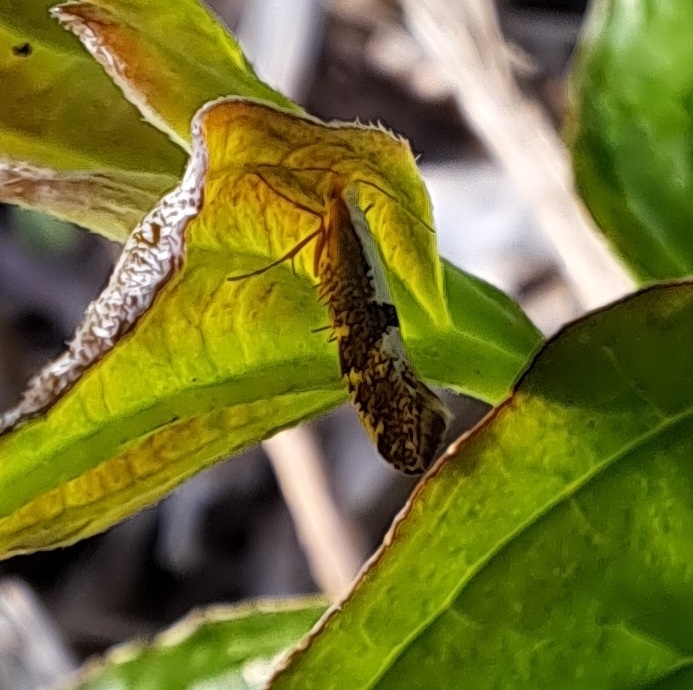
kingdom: Animalia
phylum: Arthropoda
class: Insecta
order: Lepidoptera
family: Argyresthiidae
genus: Argyresthia
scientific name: Argyresthia spinosella
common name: Blackthorn argent
